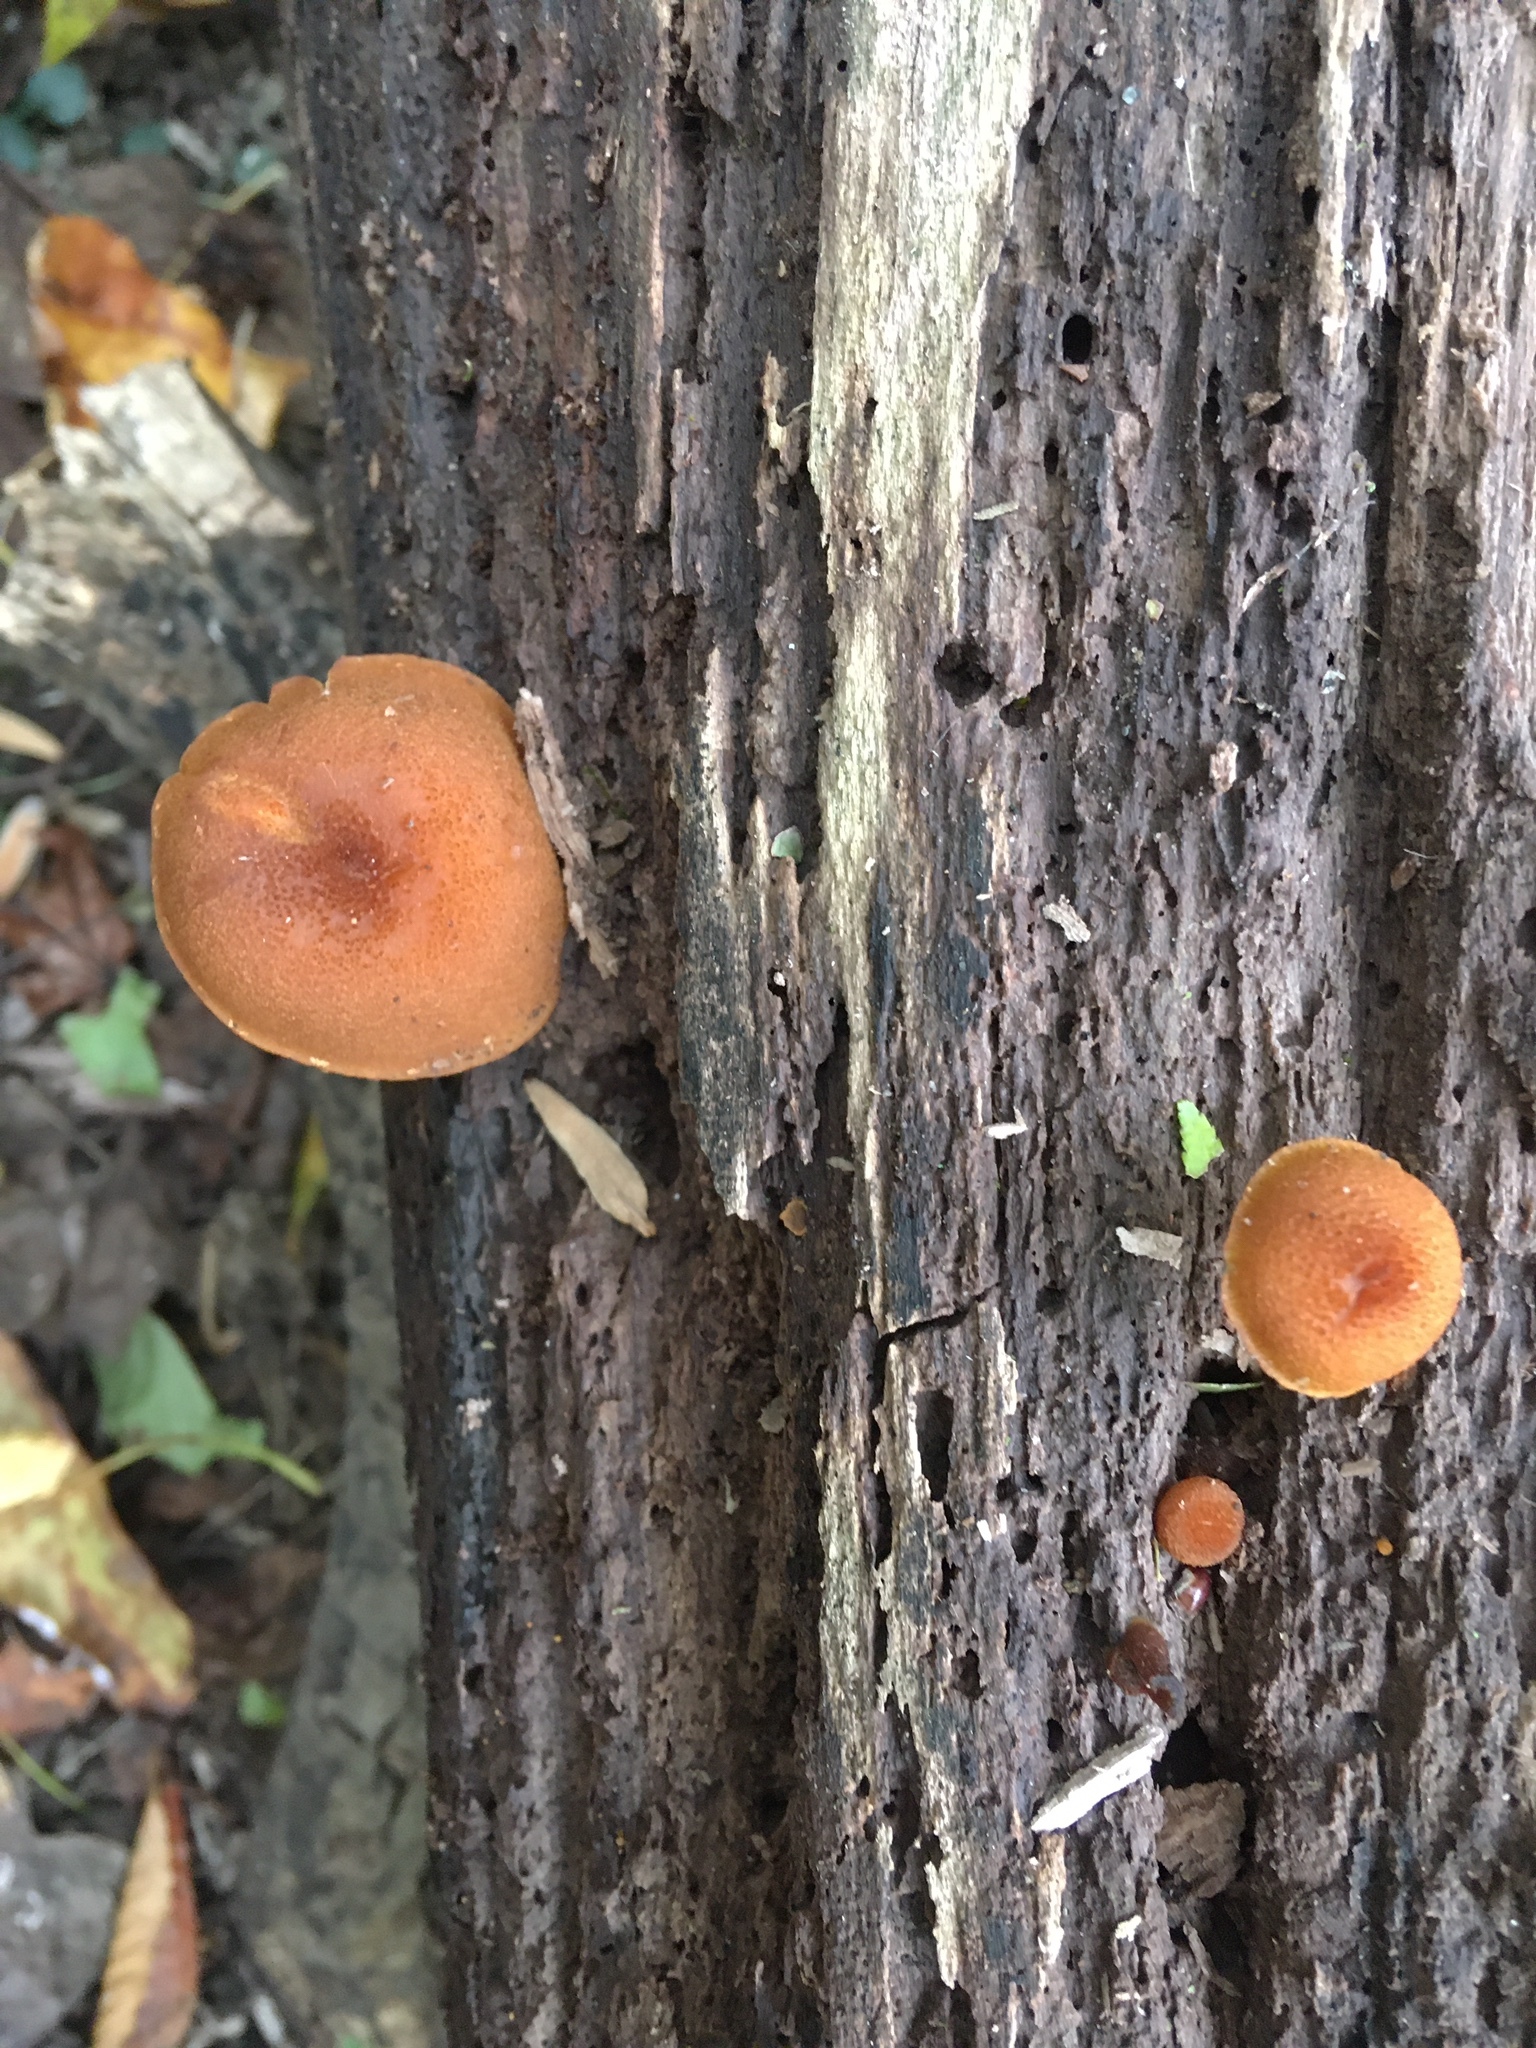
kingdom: Fungi
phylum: Basidiomycota
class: Agaricomycetes
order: Agaricales
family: Strophariaceae
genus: Pholiota
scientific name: Pholiota granulosa
